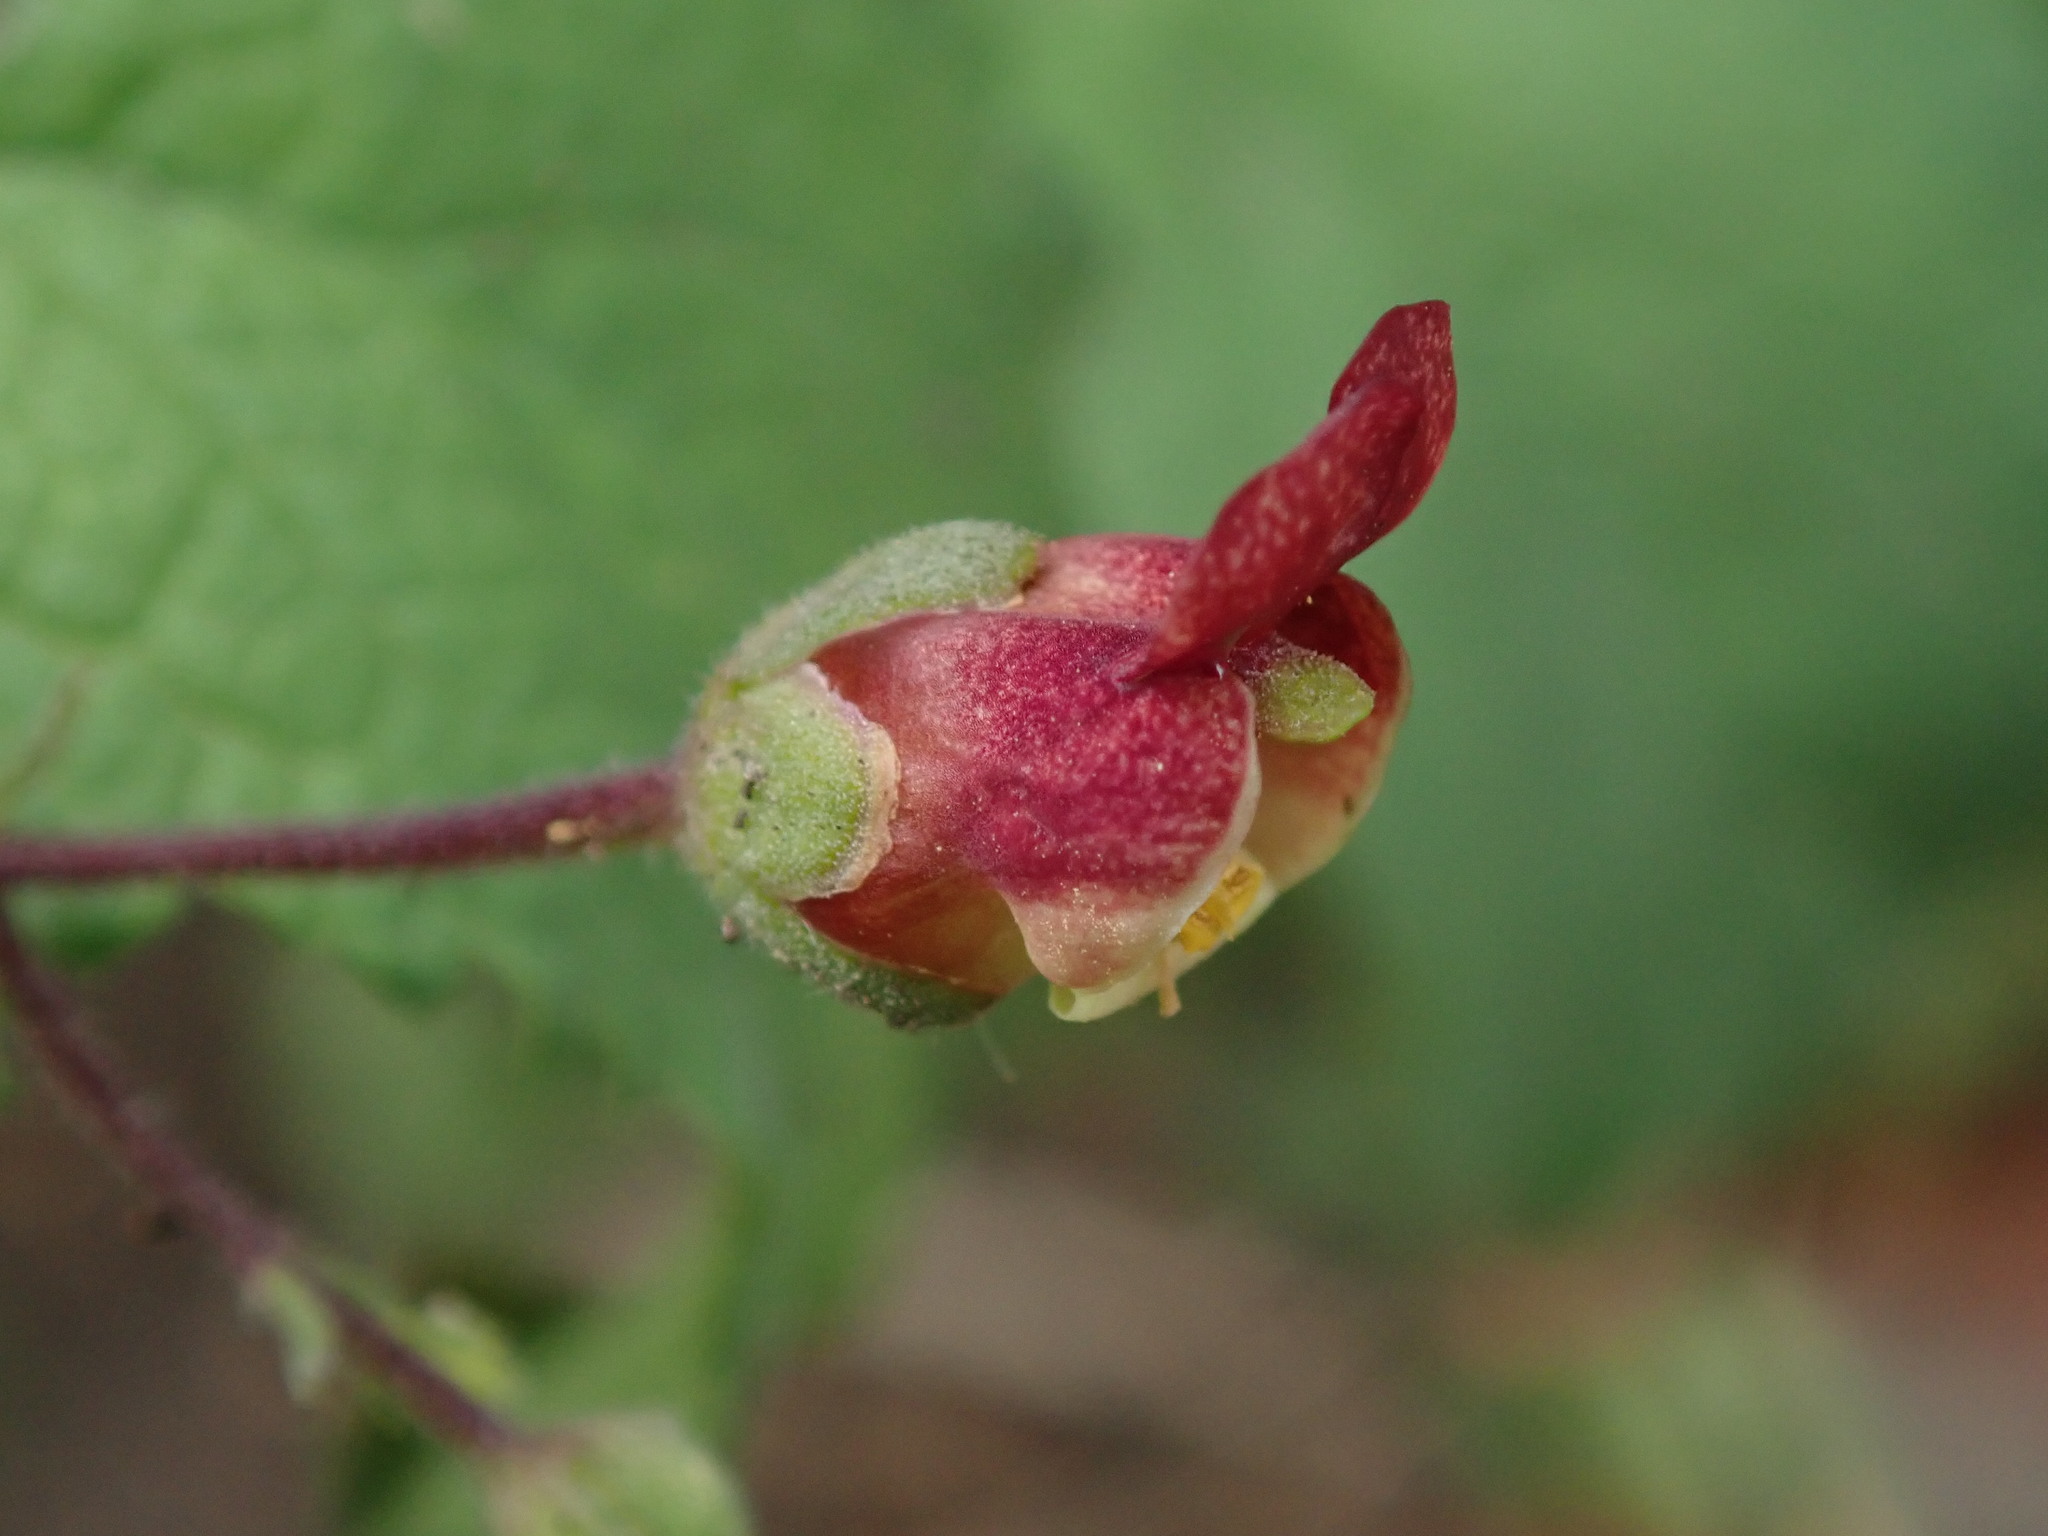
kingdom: Plantae
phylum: Tracheophyta
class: Magnoliopsida
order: Lamiales
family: Scrophulariaceae
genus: Scrophularia
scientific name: Scrophularia scorodonia
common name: Balm-leaved figwort
